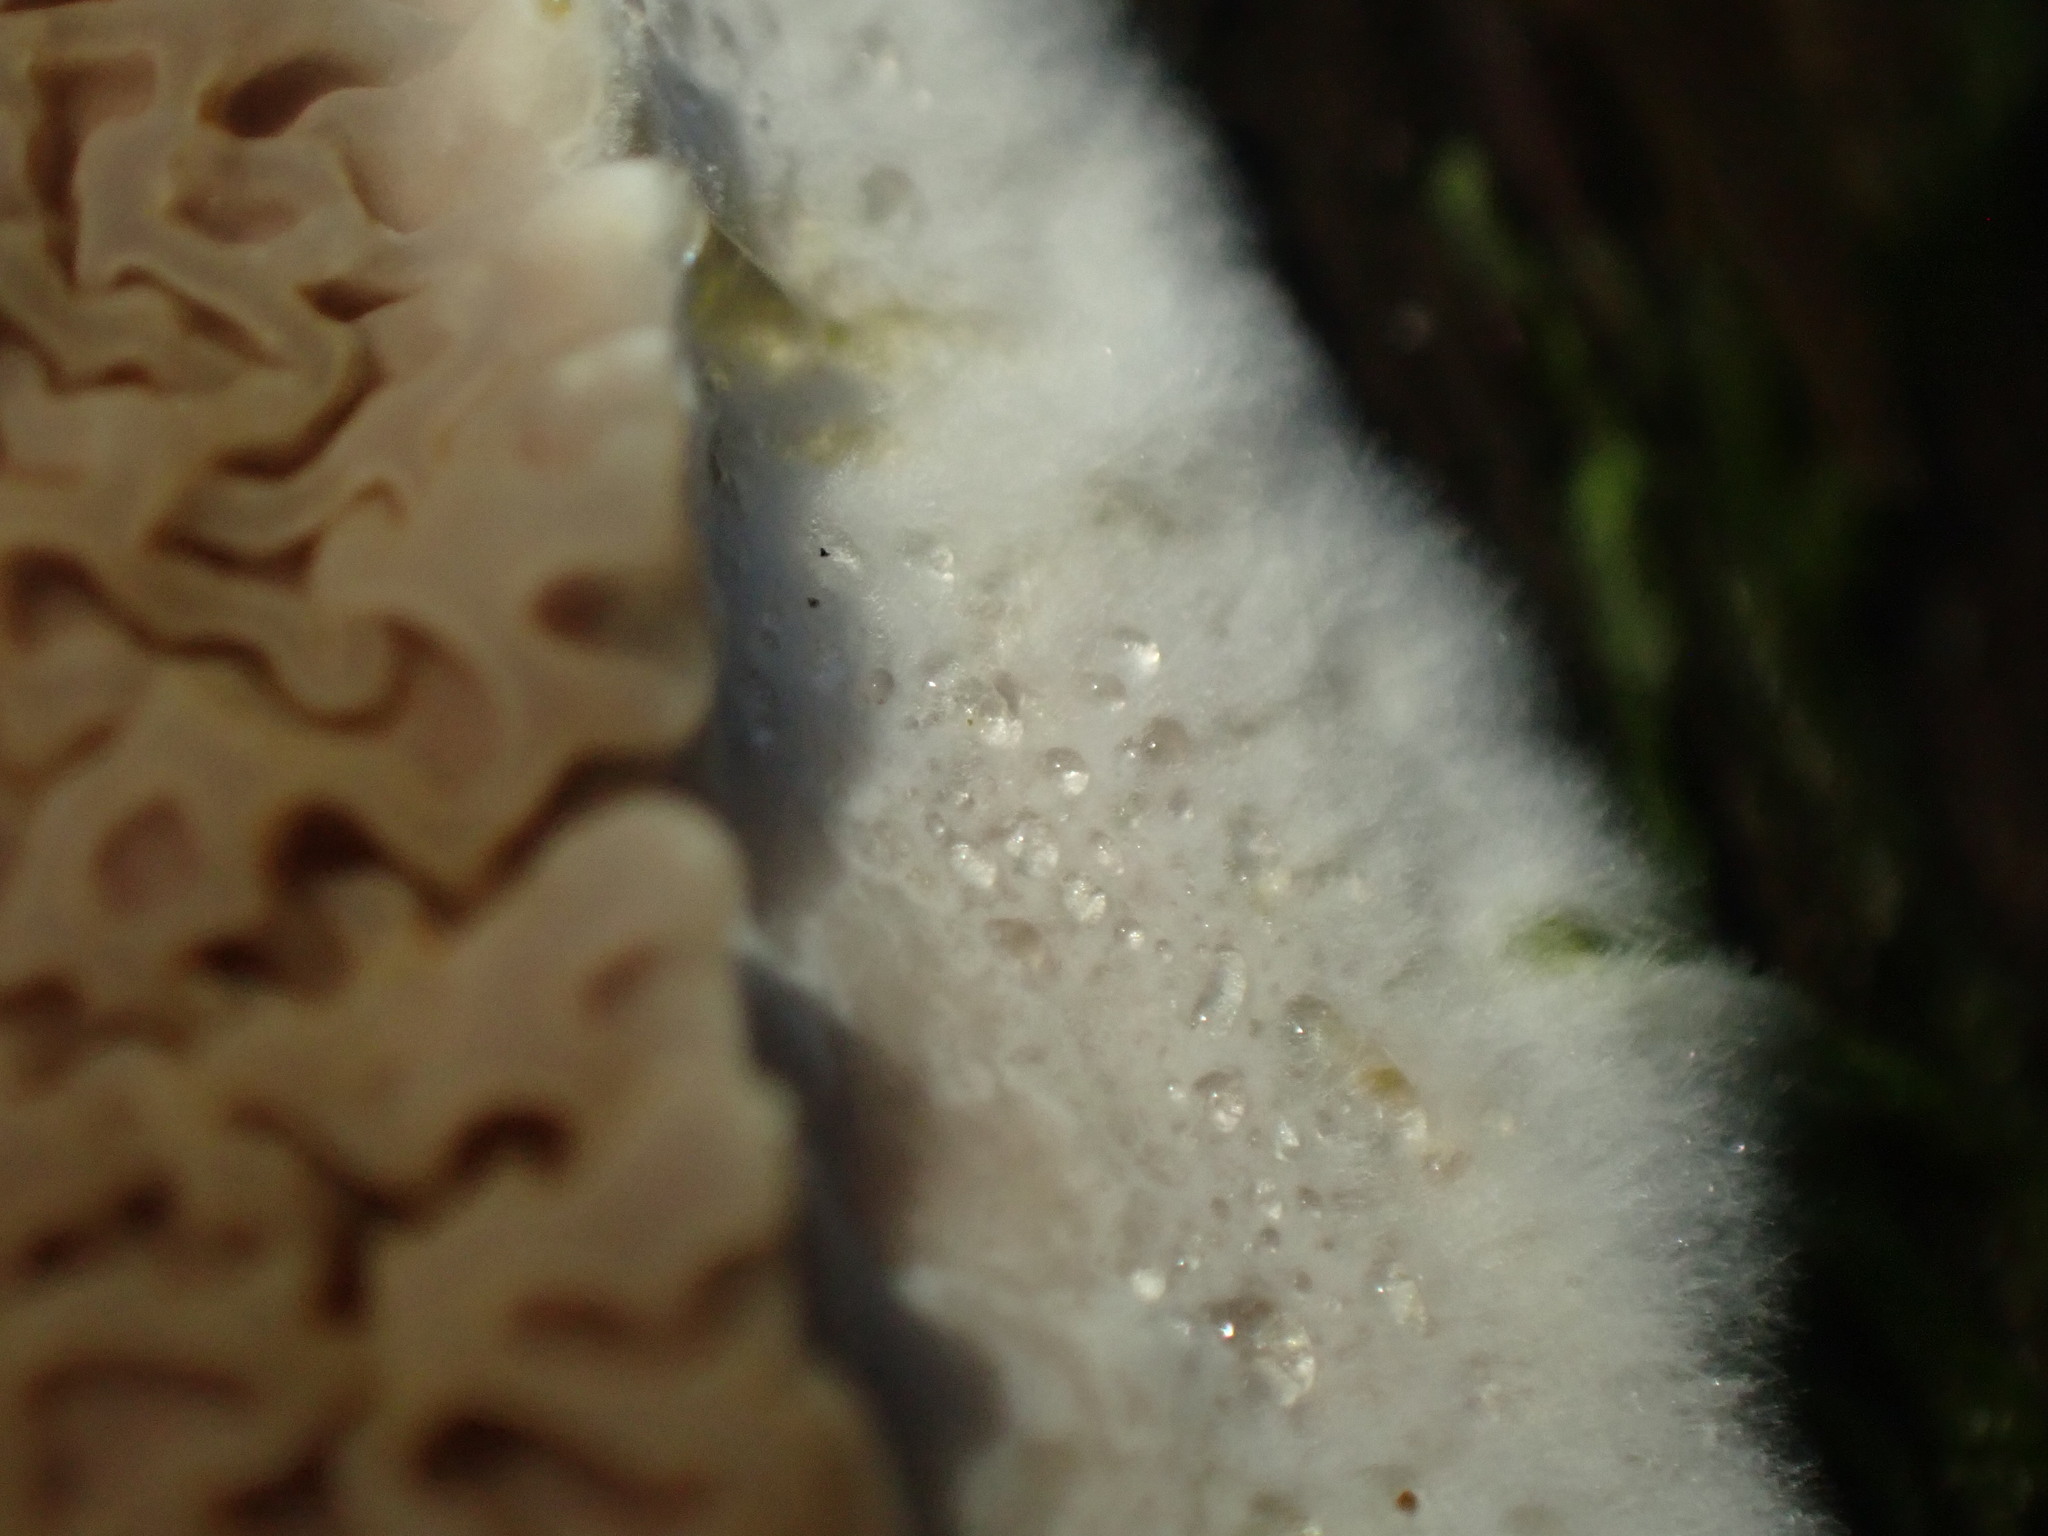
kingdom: Fungi
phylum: Basidiomycota
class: Agaricomycetes
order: Boletales
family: Serpulaceae
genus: Serpula
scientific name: Serpula himantioides
